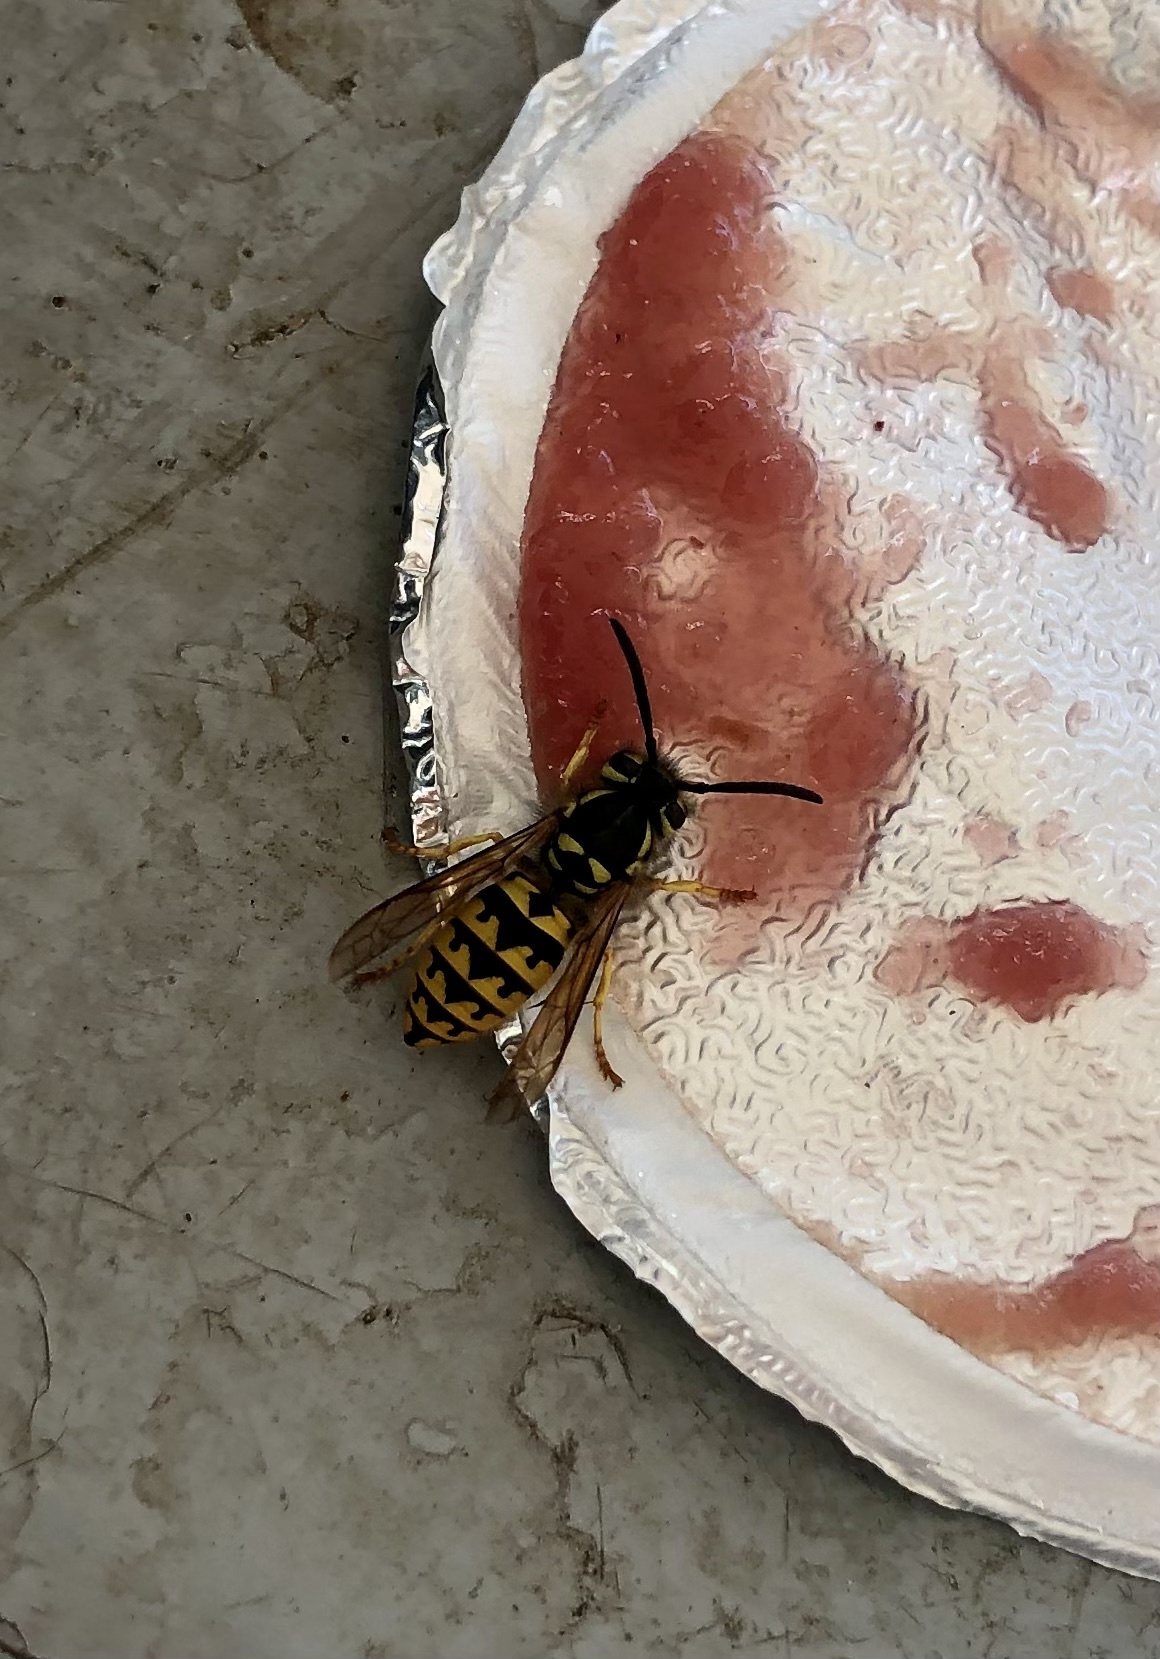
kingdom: Animalia
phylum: Arthropoda
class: Insecta
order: Hymenoptera
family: Vespidae
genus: Vespula
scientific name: Vespula pensylvanica
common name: Western yellowjacket
